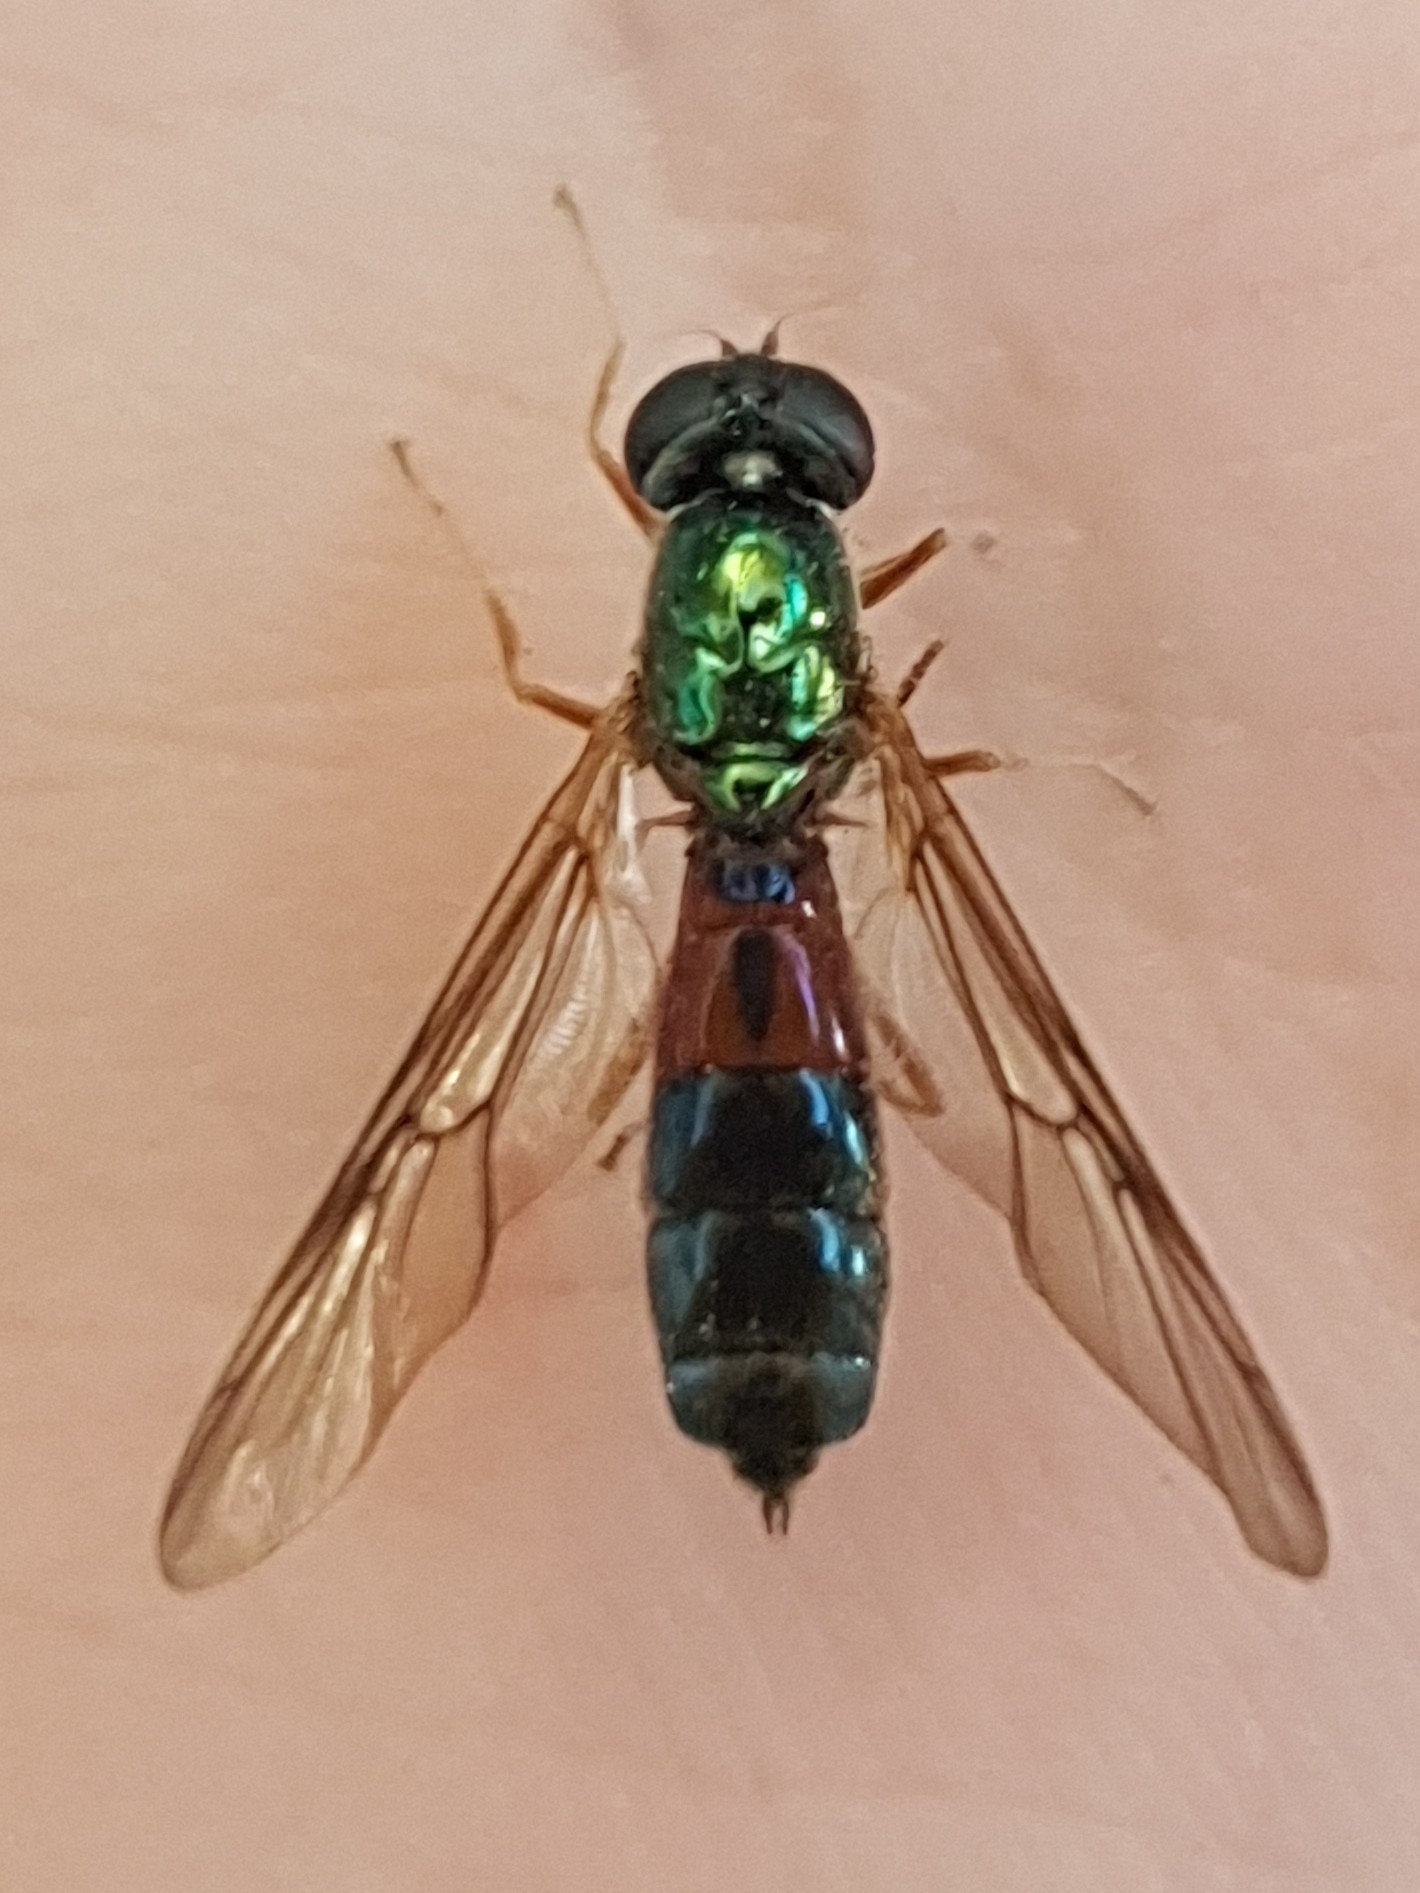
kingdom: Animalia
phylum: Arthropoda
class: Insecta
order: Diptera
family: Stratiomyidae
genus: Sargus
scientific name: Sargus bipunctatus
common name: Twin-spot centurion
